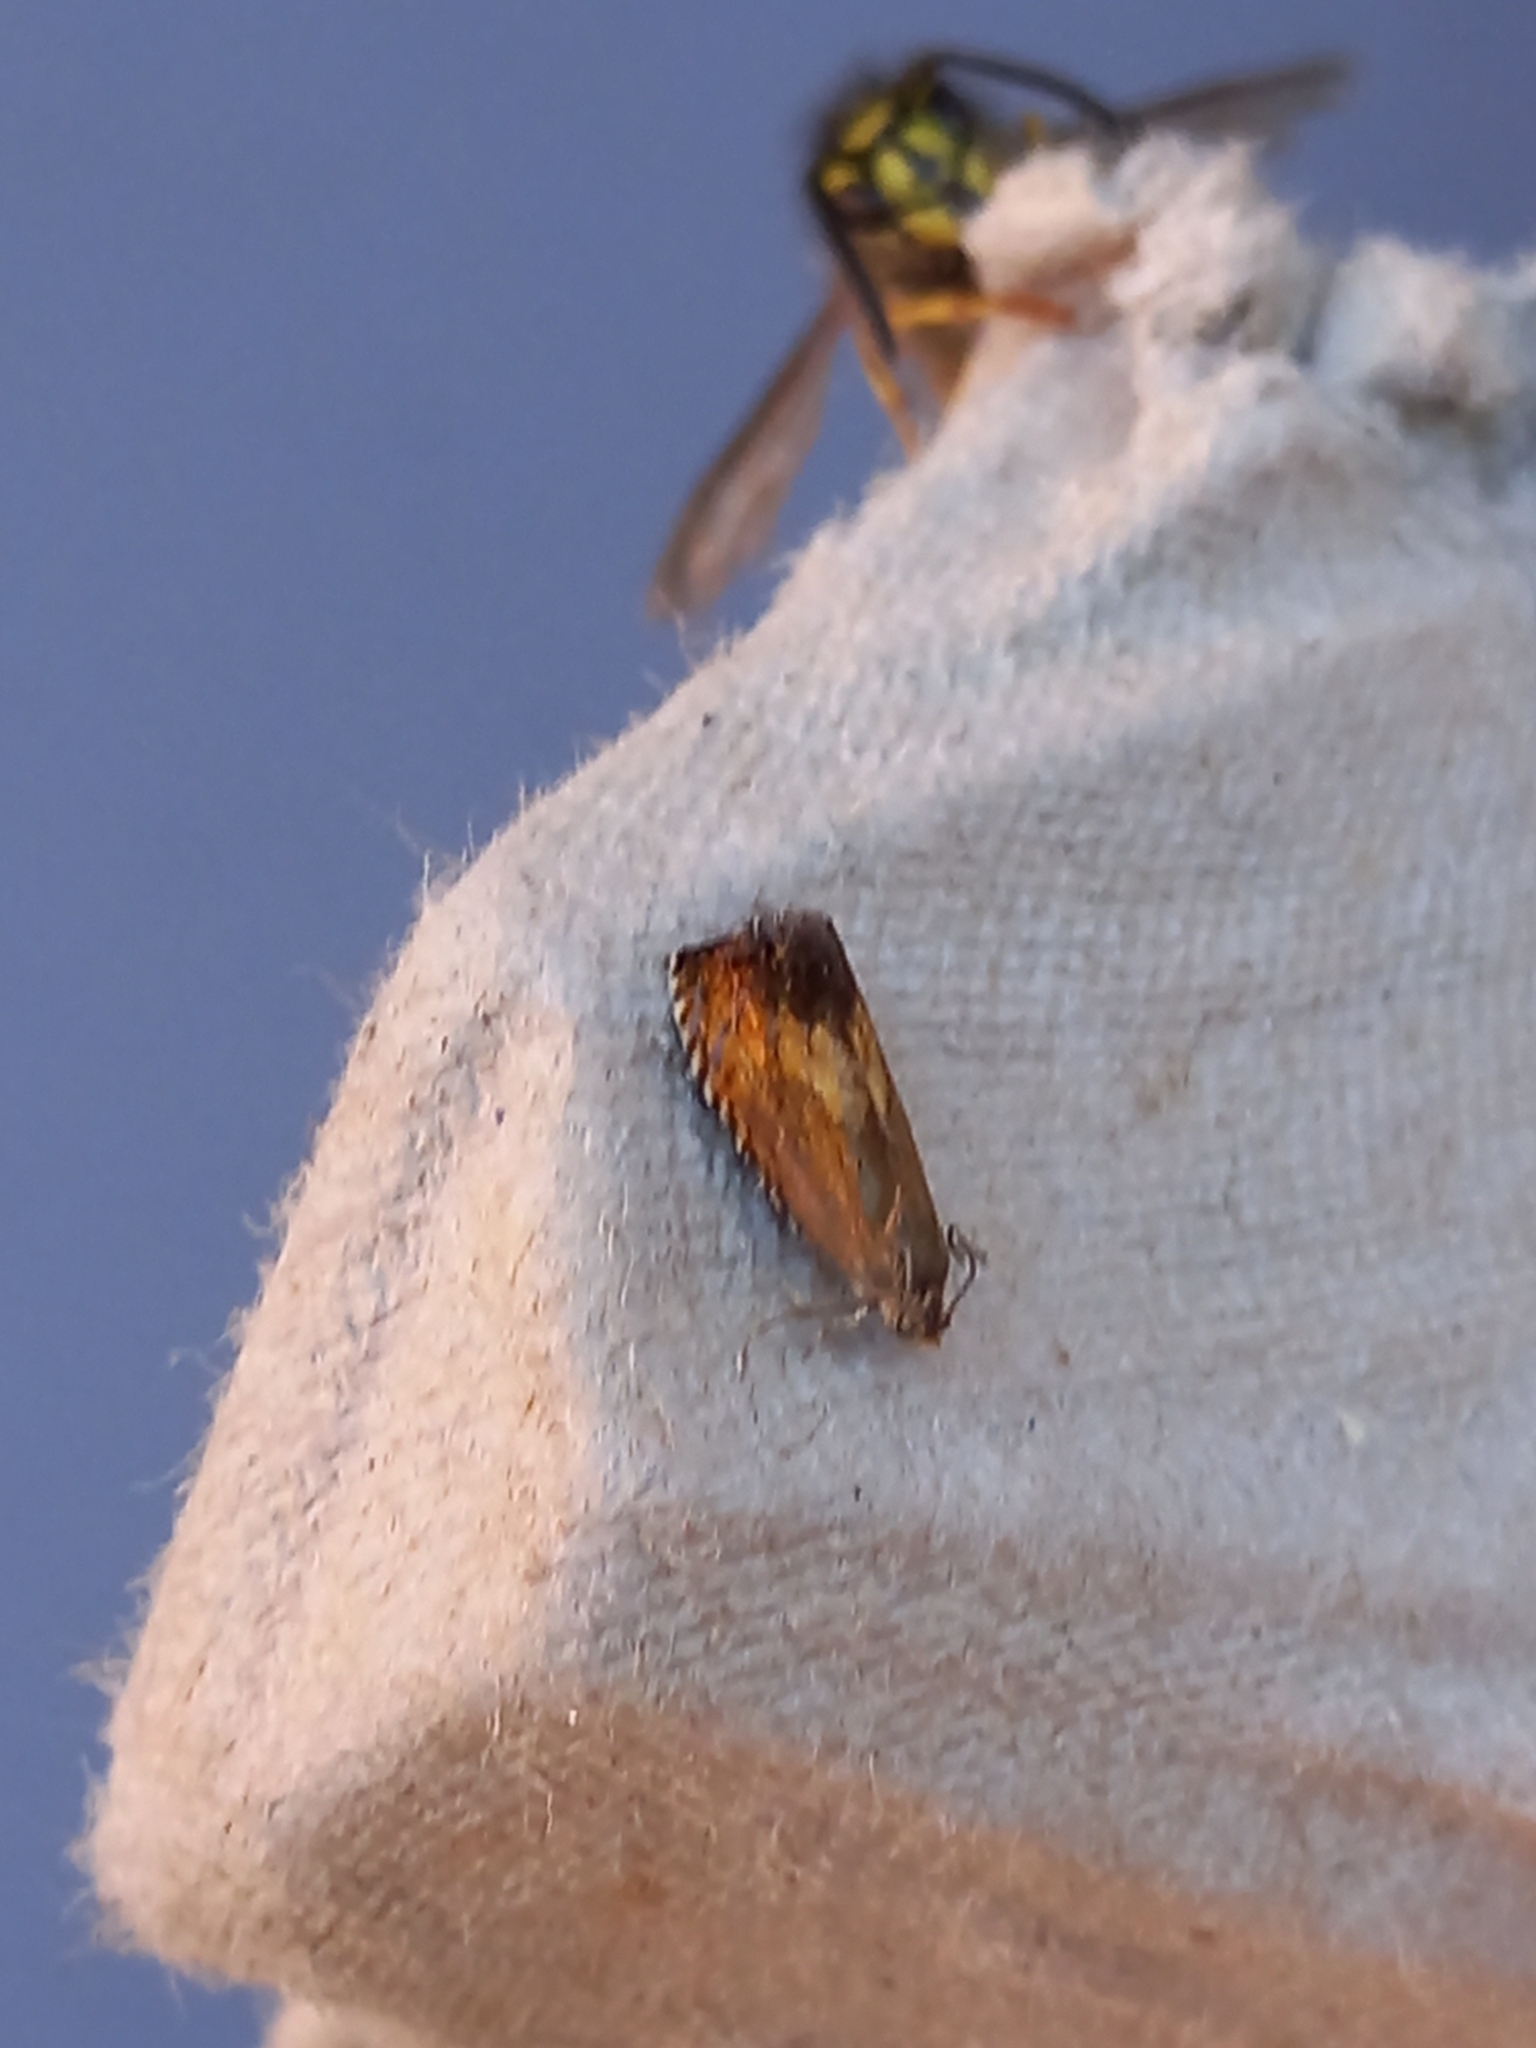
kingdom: Animalia
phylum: Arthropoda
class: Insecta
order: Lepidoptera
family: Tortricidae
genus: Pammene
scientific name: Pammene aurita
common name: Sycamore piercer
